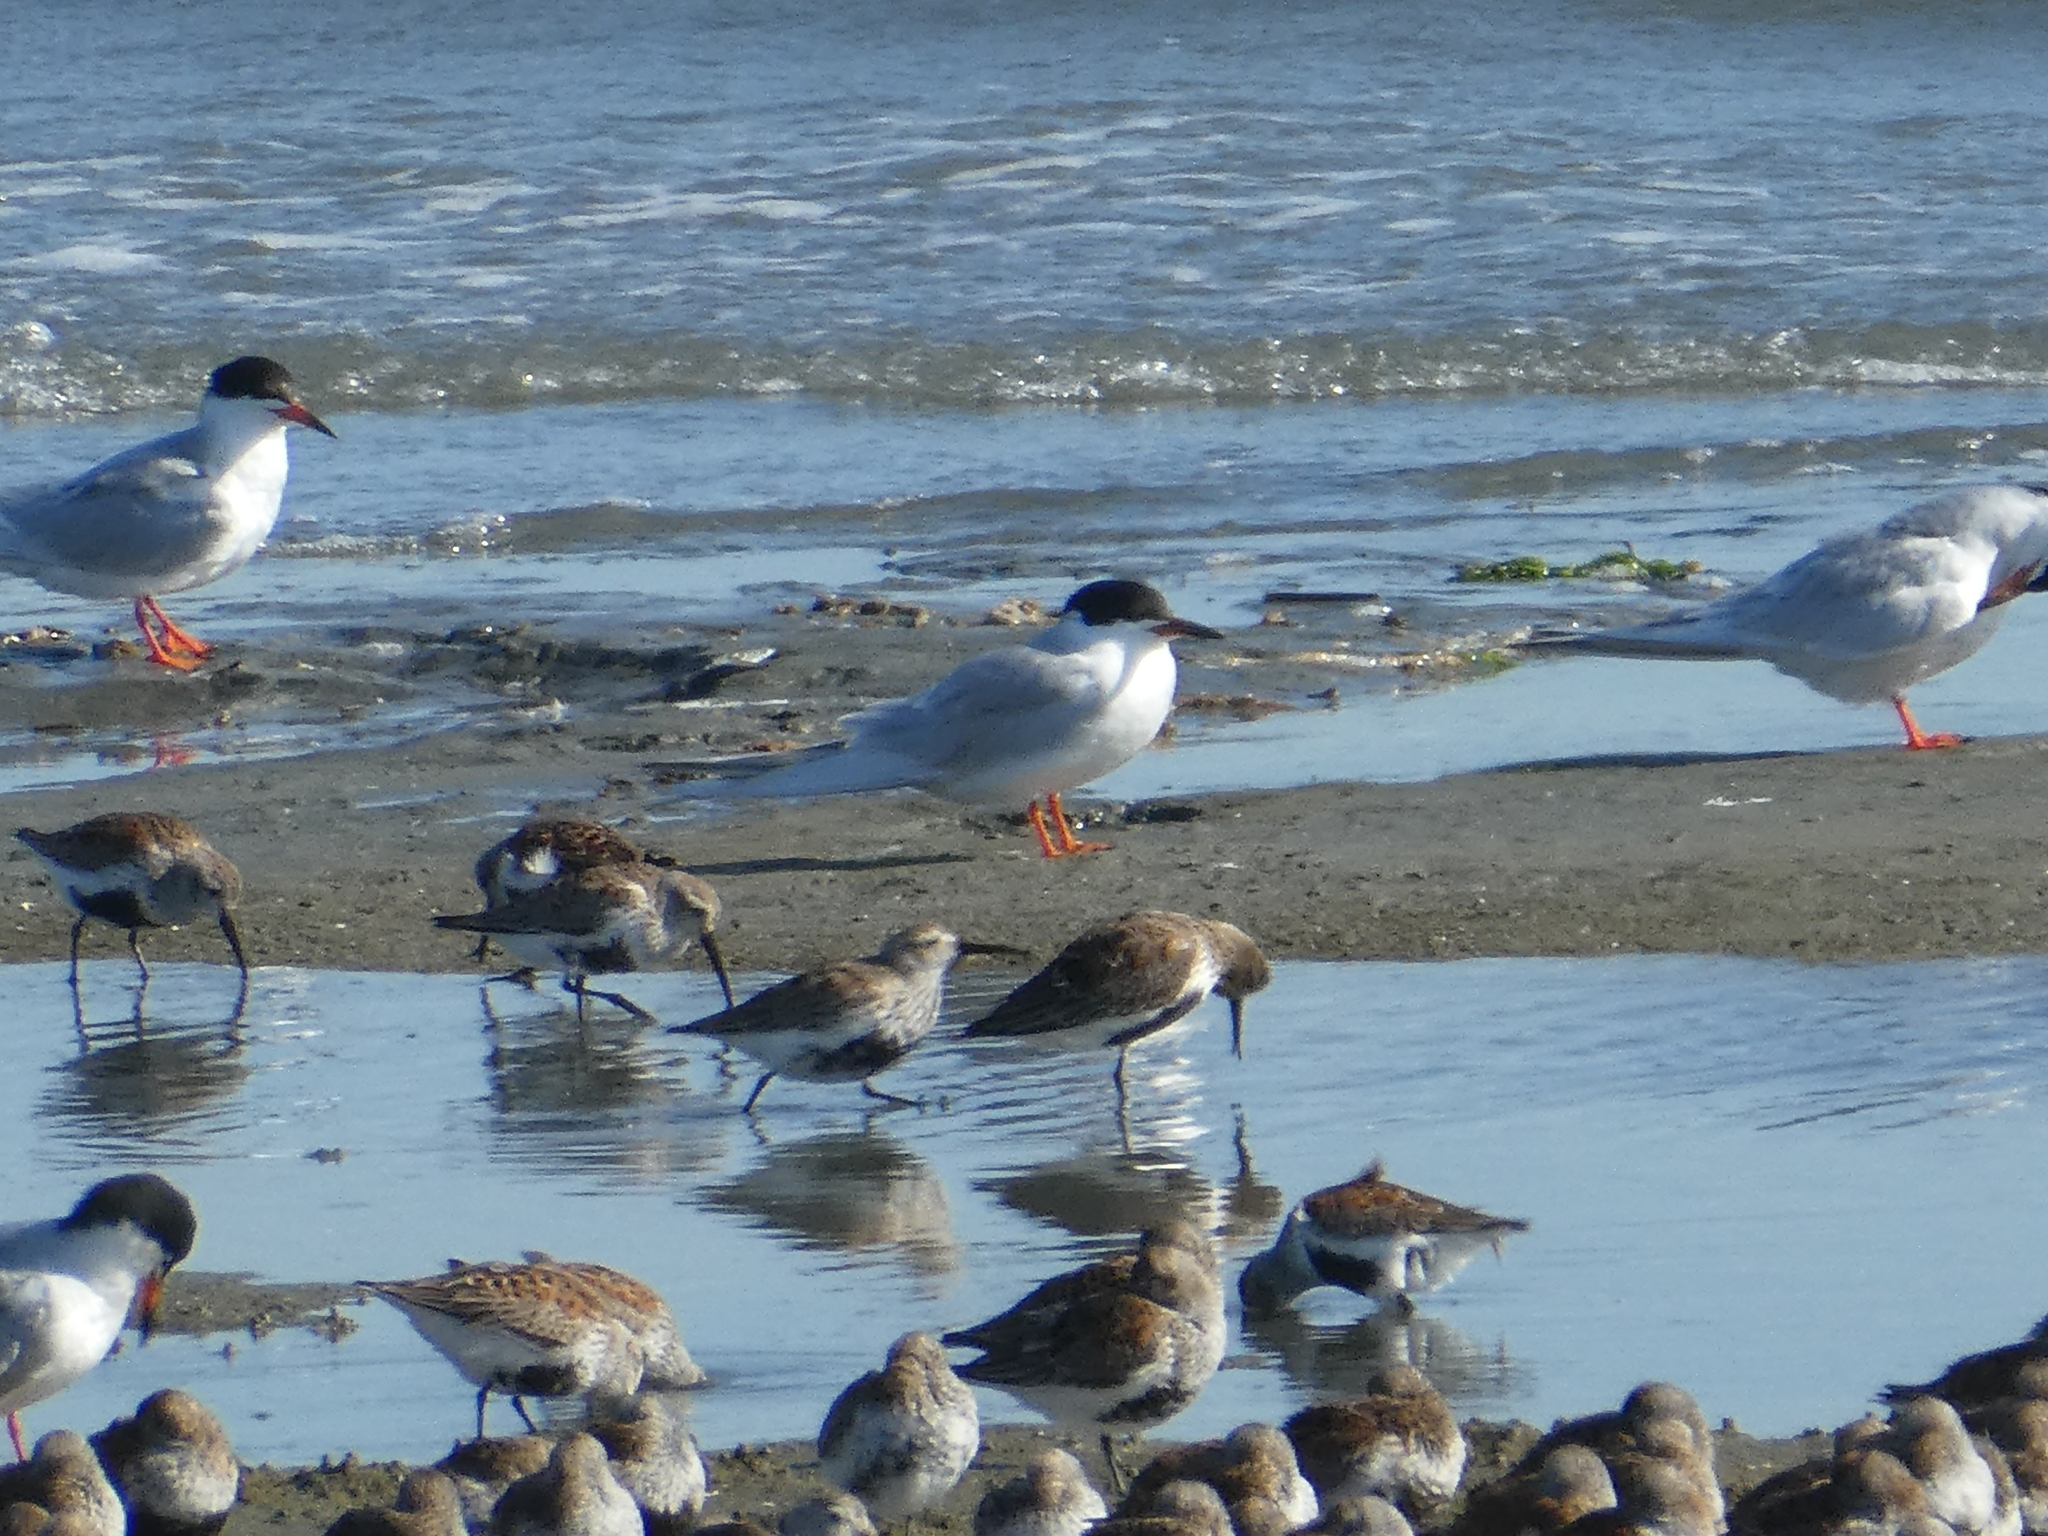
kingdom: Animalia
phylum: Chordata
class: Aves
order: Charadriiformes
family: Laridae
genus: Sterna
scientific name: Sterna forsteri
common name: Forster's tern
